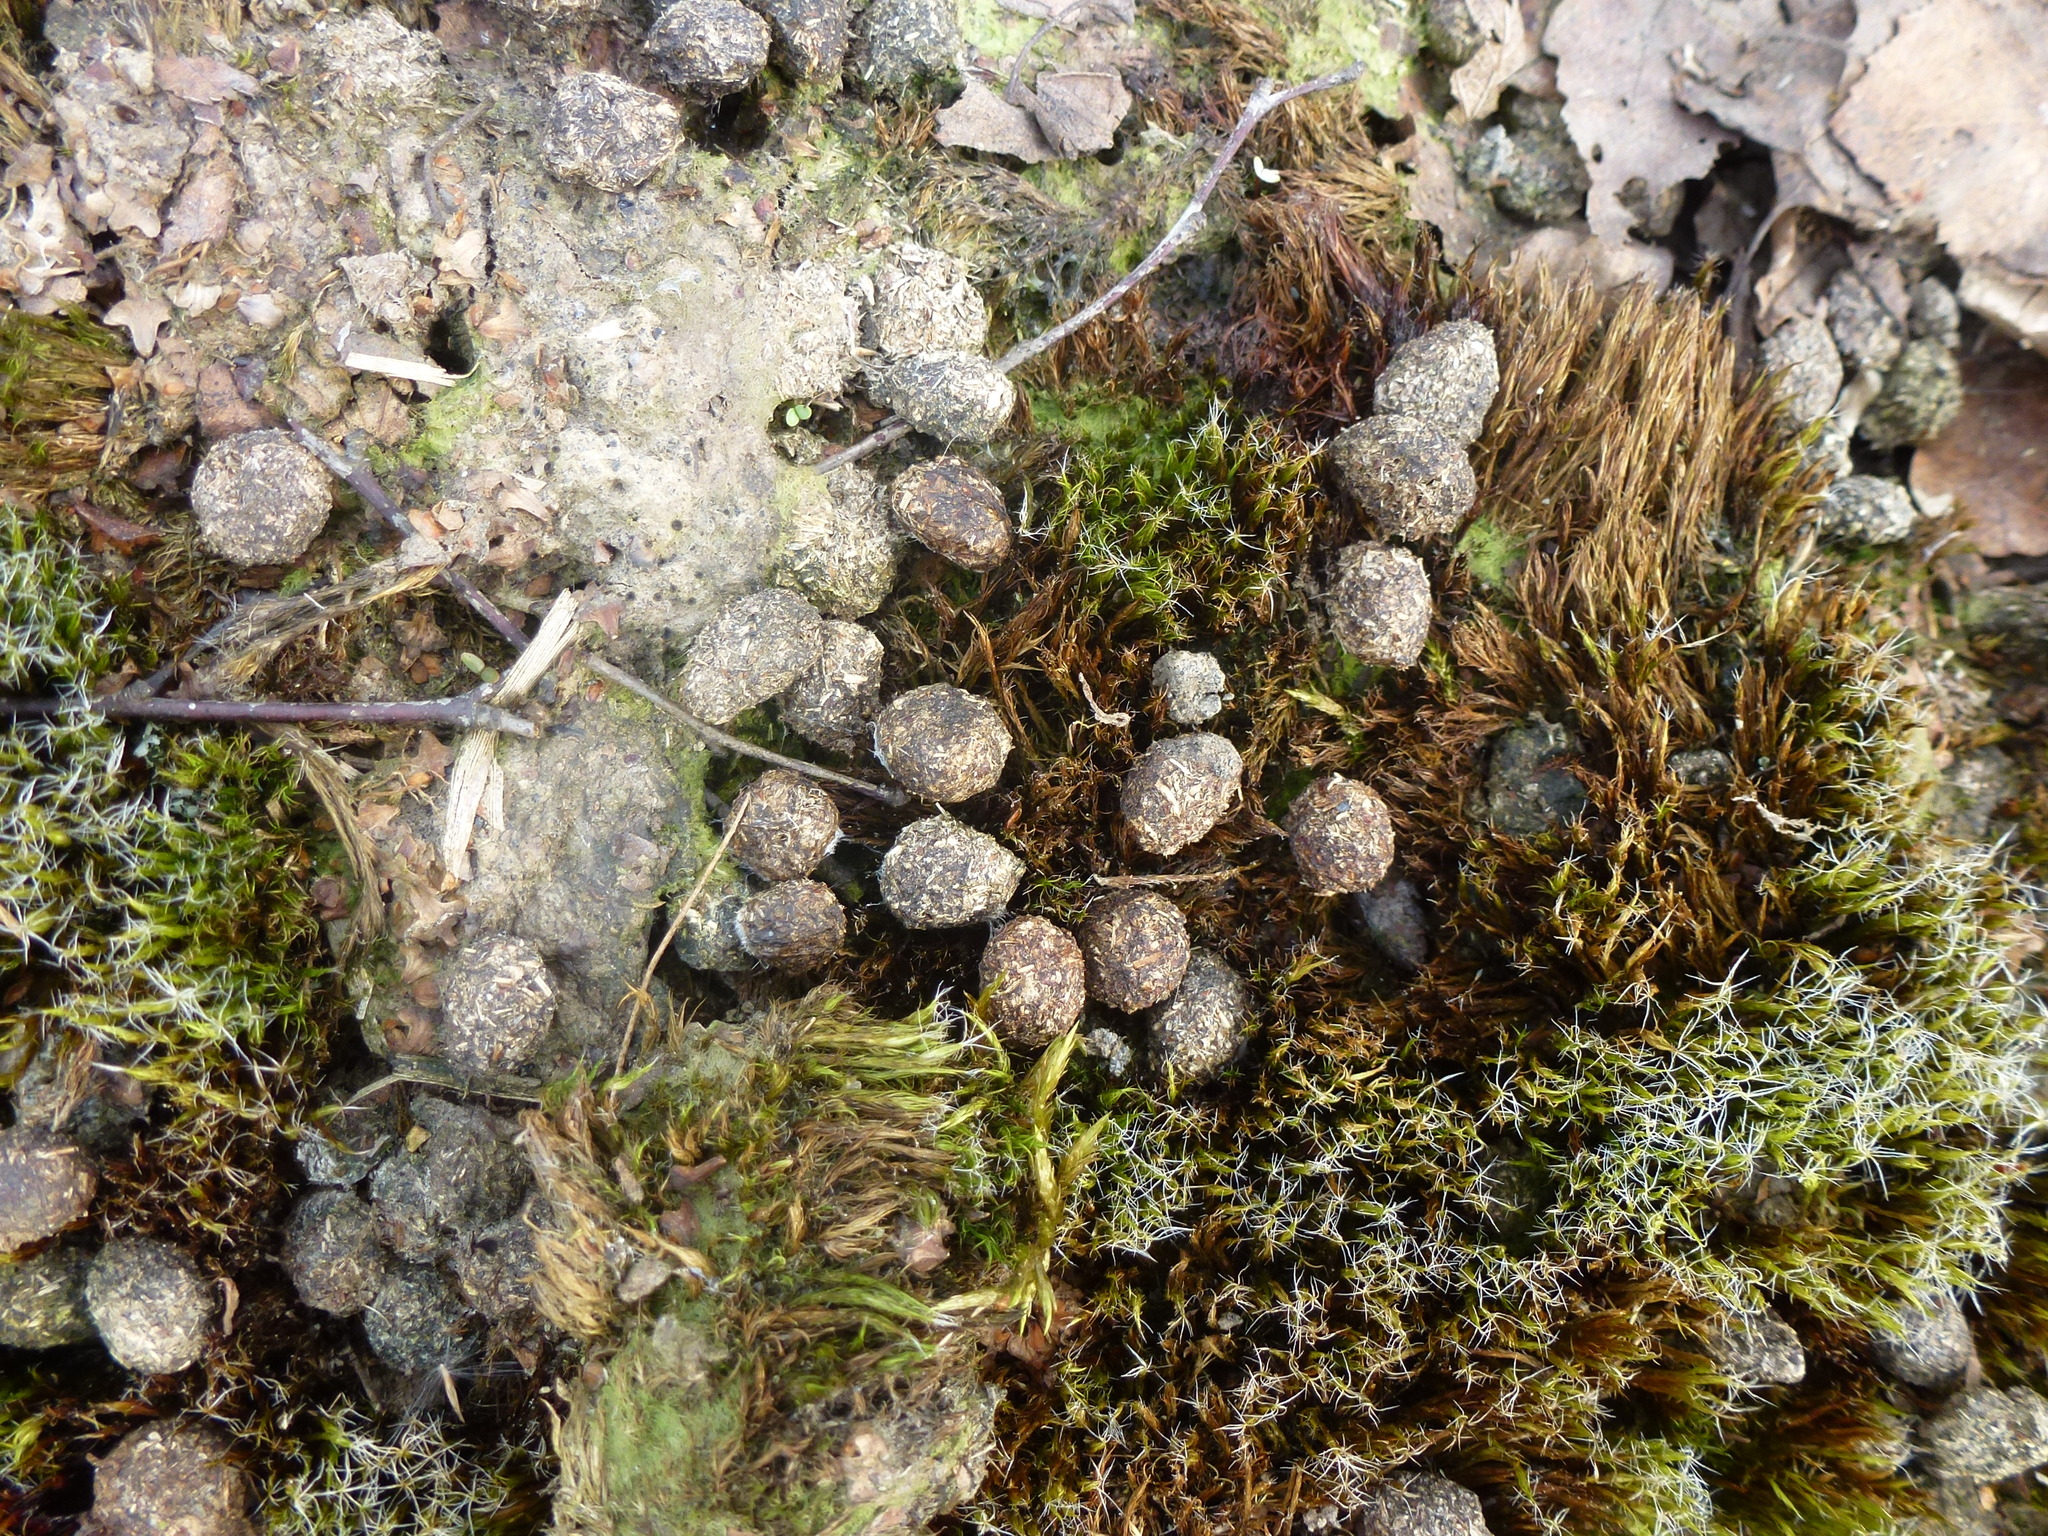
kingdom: Animalia
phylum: Chordata
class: Mammalia
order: Lagomorpha
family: Leporidae
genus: Oryctolagus
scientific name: Oryctolagus cuniculus
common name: European rabbit
